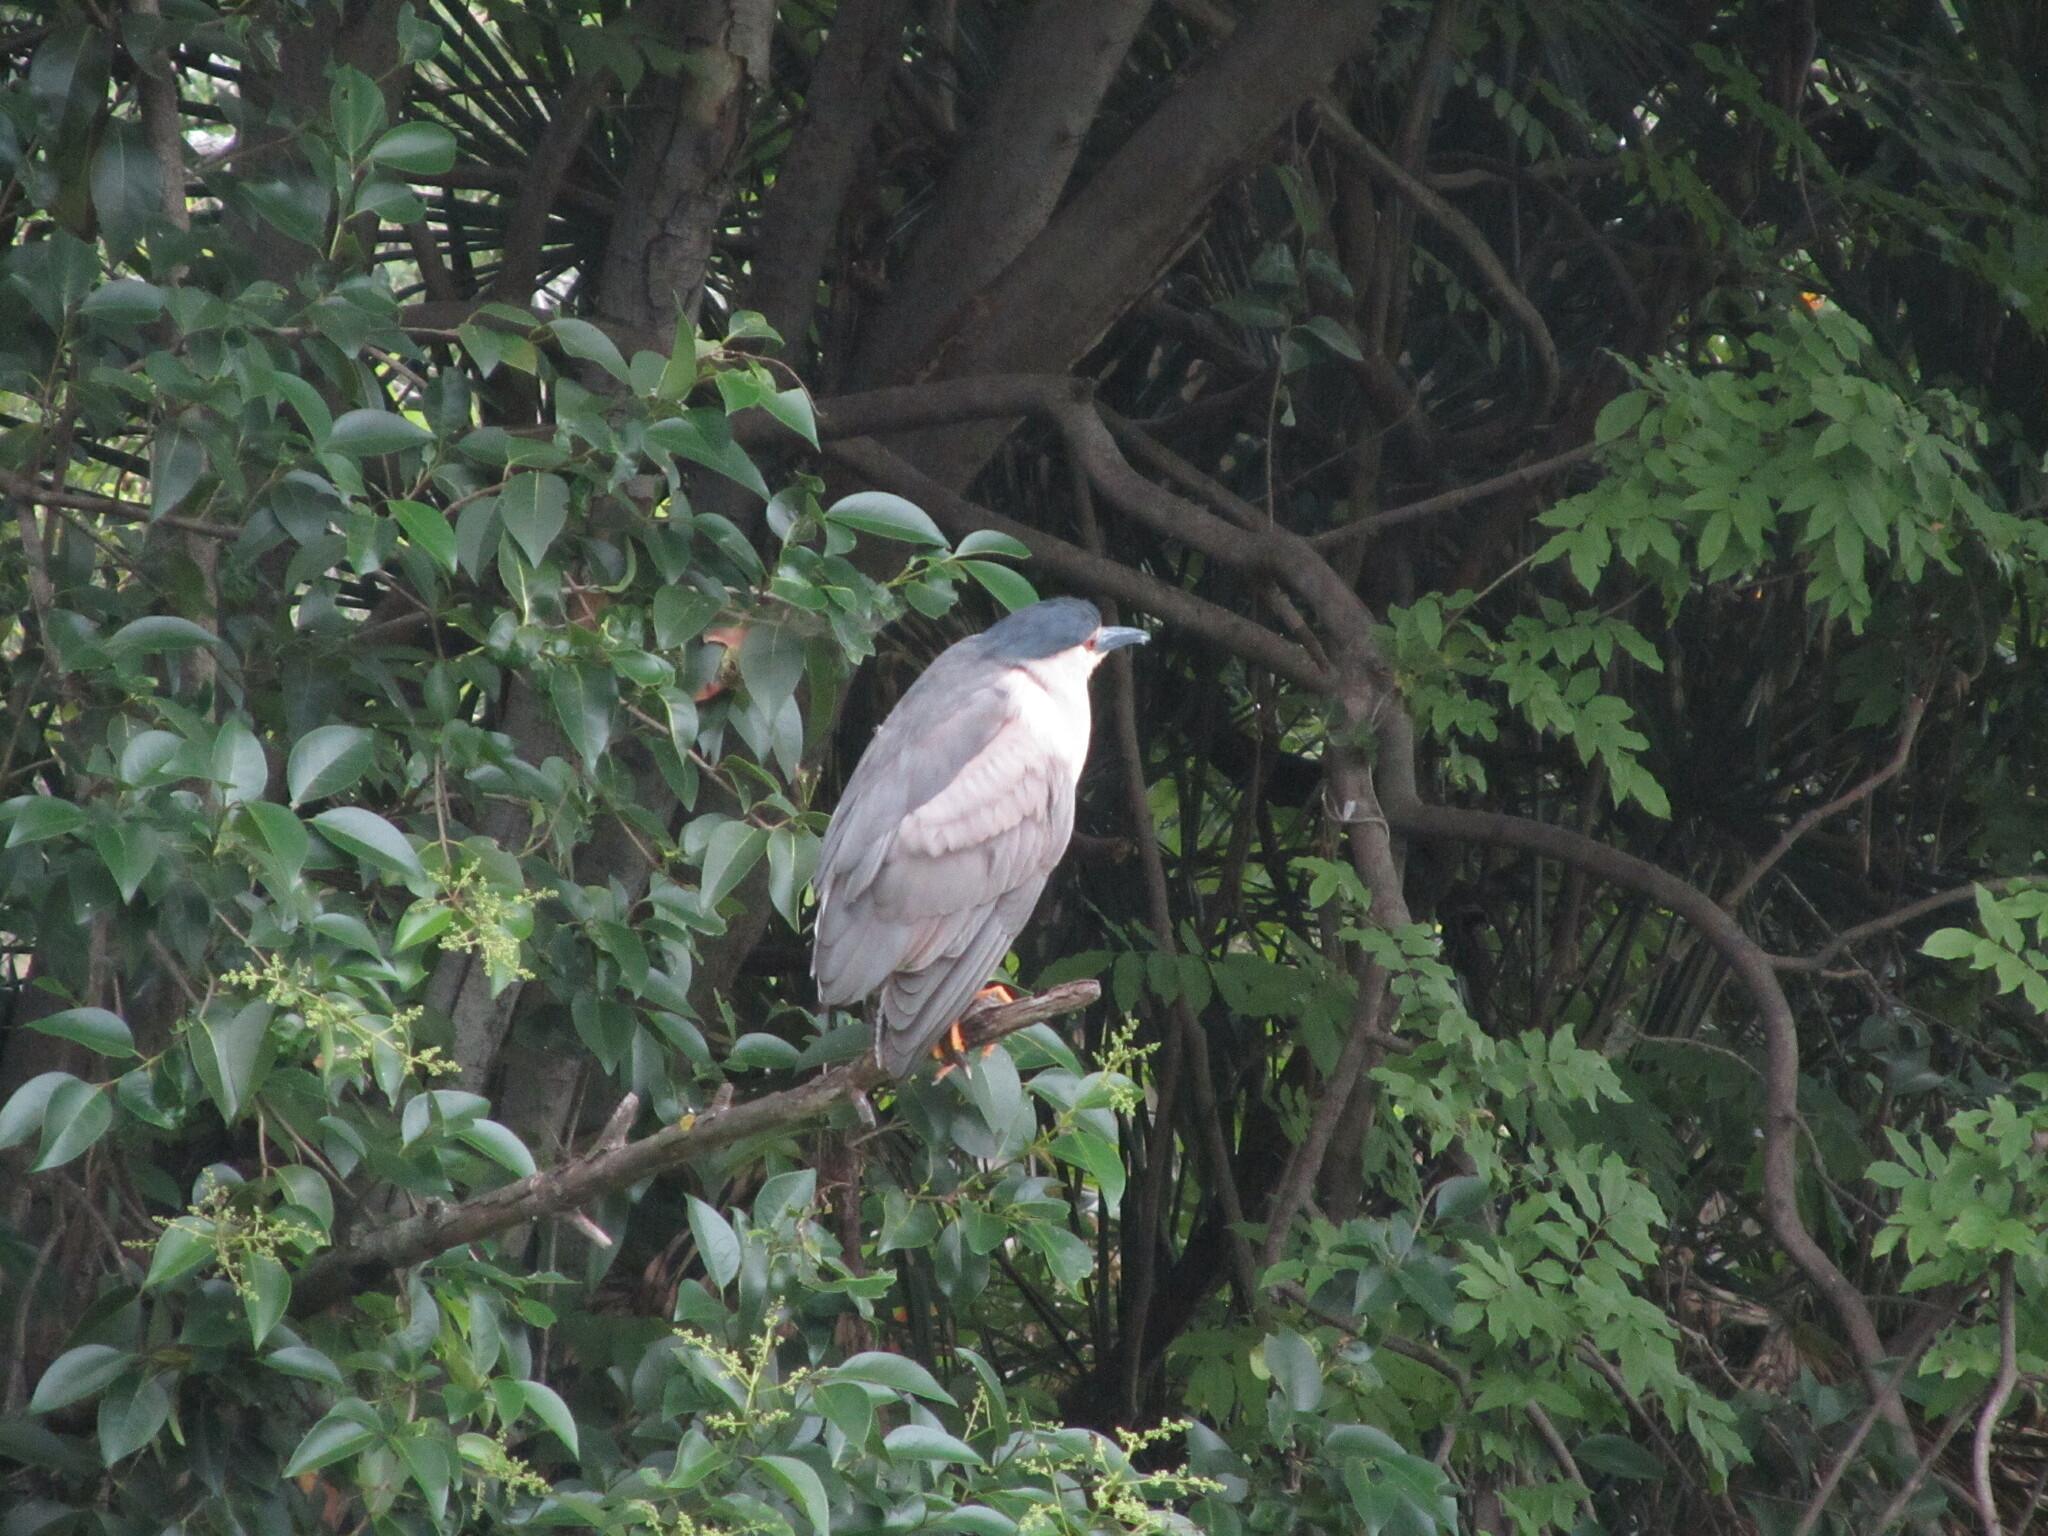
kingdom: Animalia
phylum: Chordata
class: Aves
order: Pelecaniformes
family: Ardeidae
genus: Nycticorax
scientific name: Nycticorax nycticorax
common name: Black-crowned night heron
